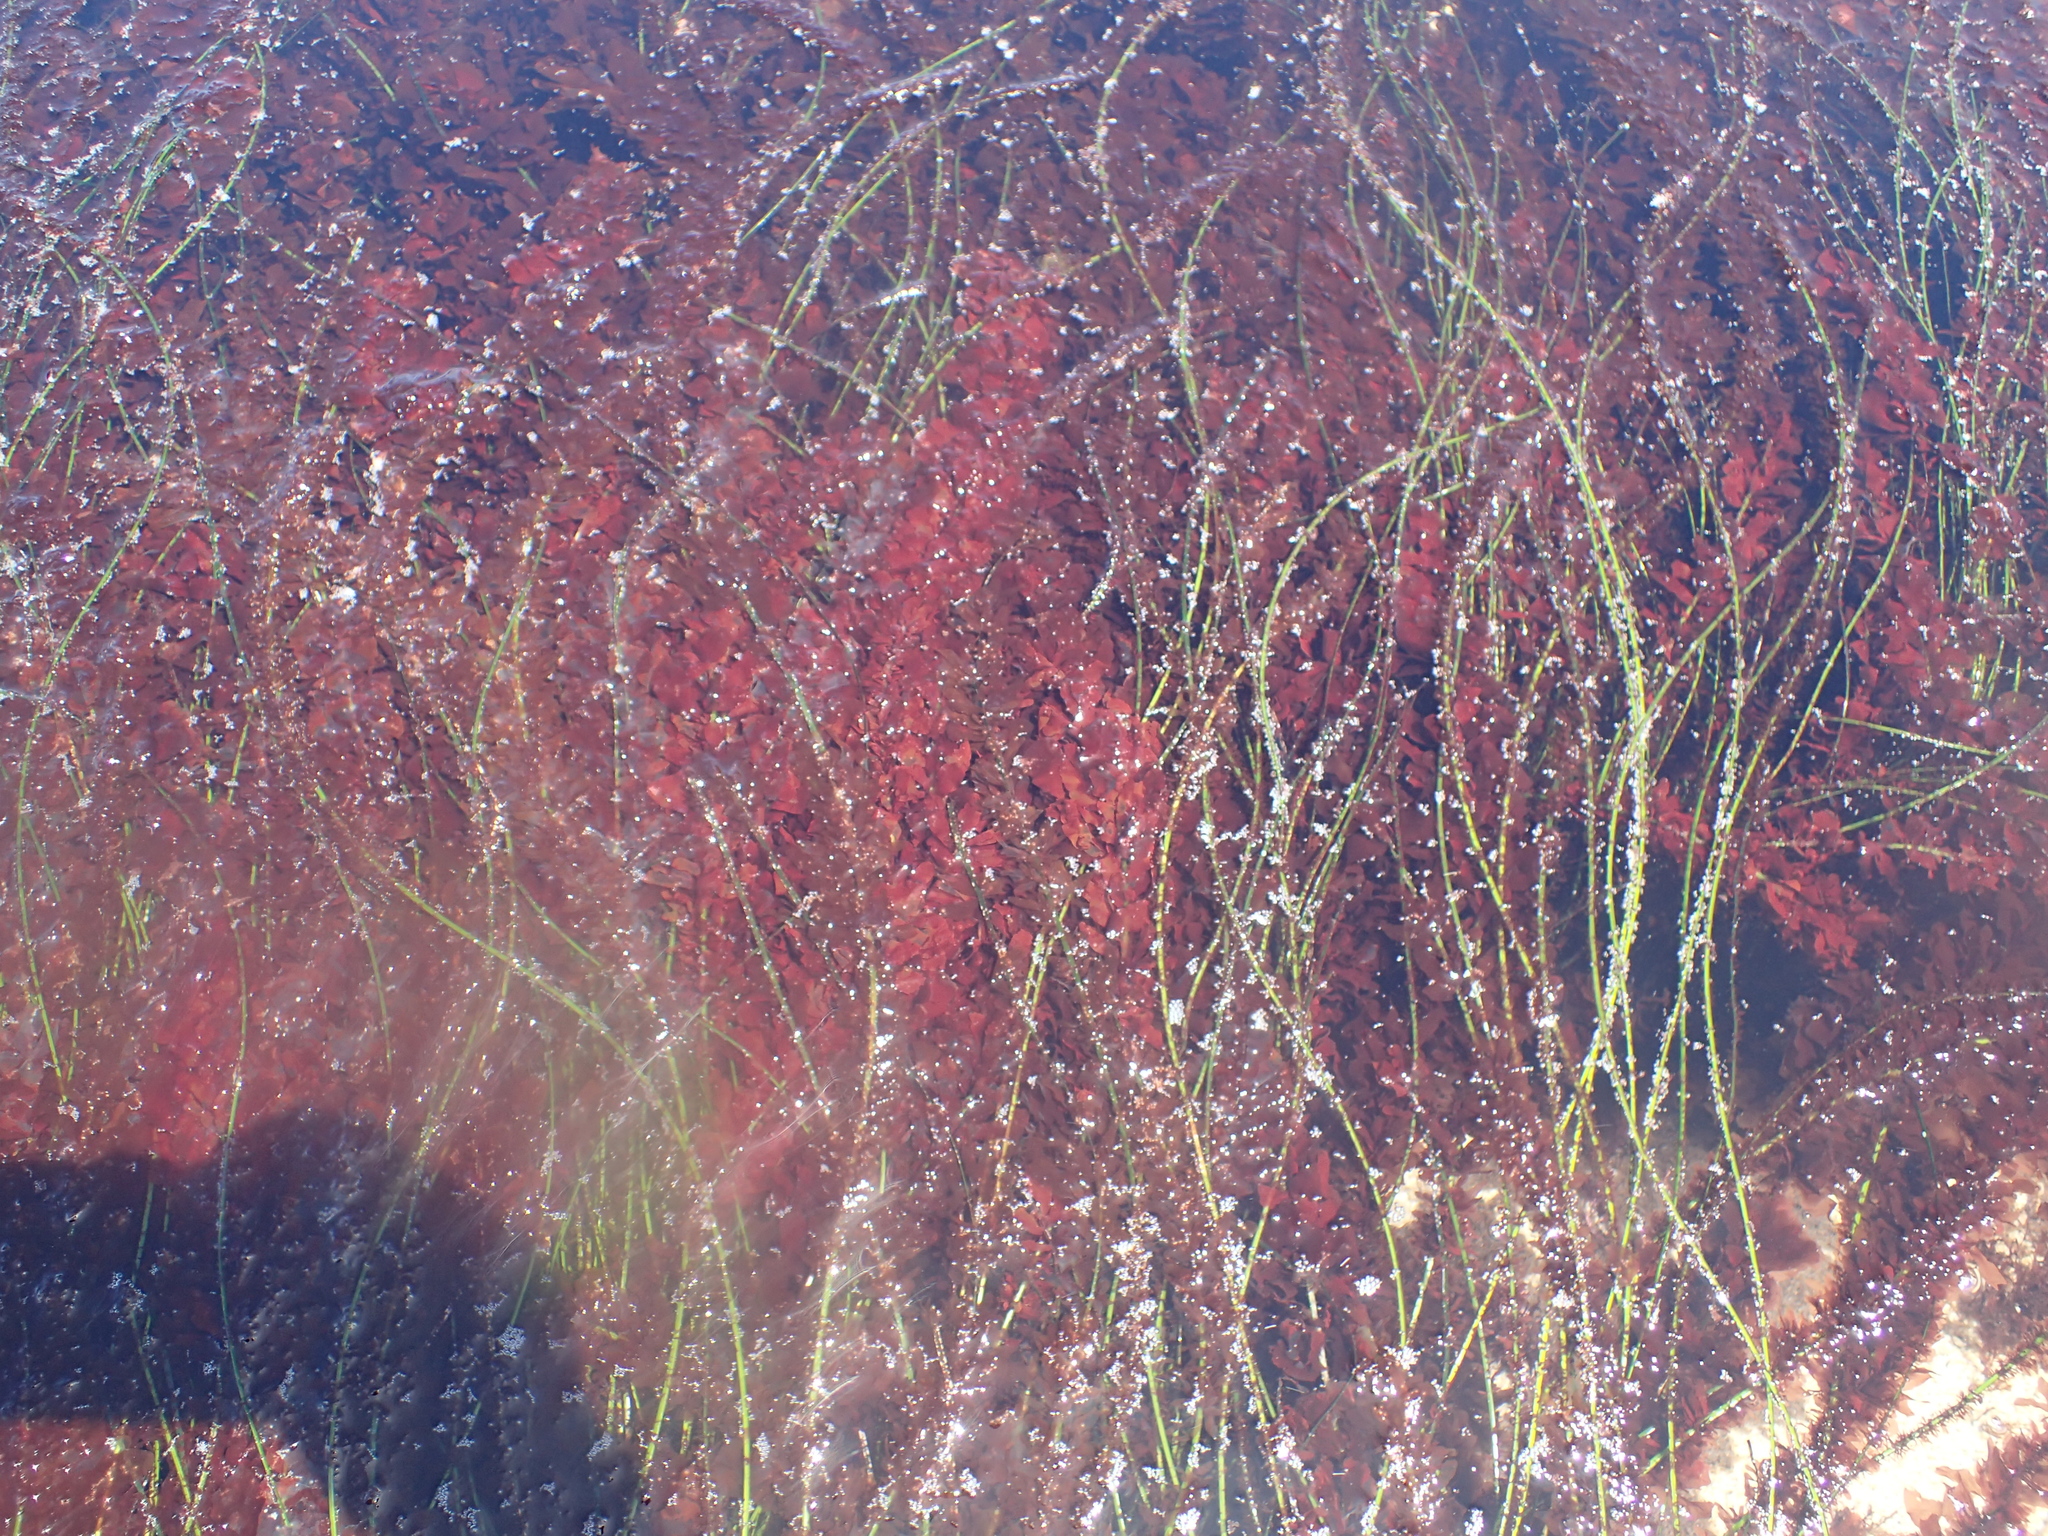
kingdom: Plantae
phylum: Rhodophyta
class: Compsopogonophyceae
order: Erythropeltidales
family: Erythrotrichiaceae
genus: Smithora
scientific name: Smithora naiadum
